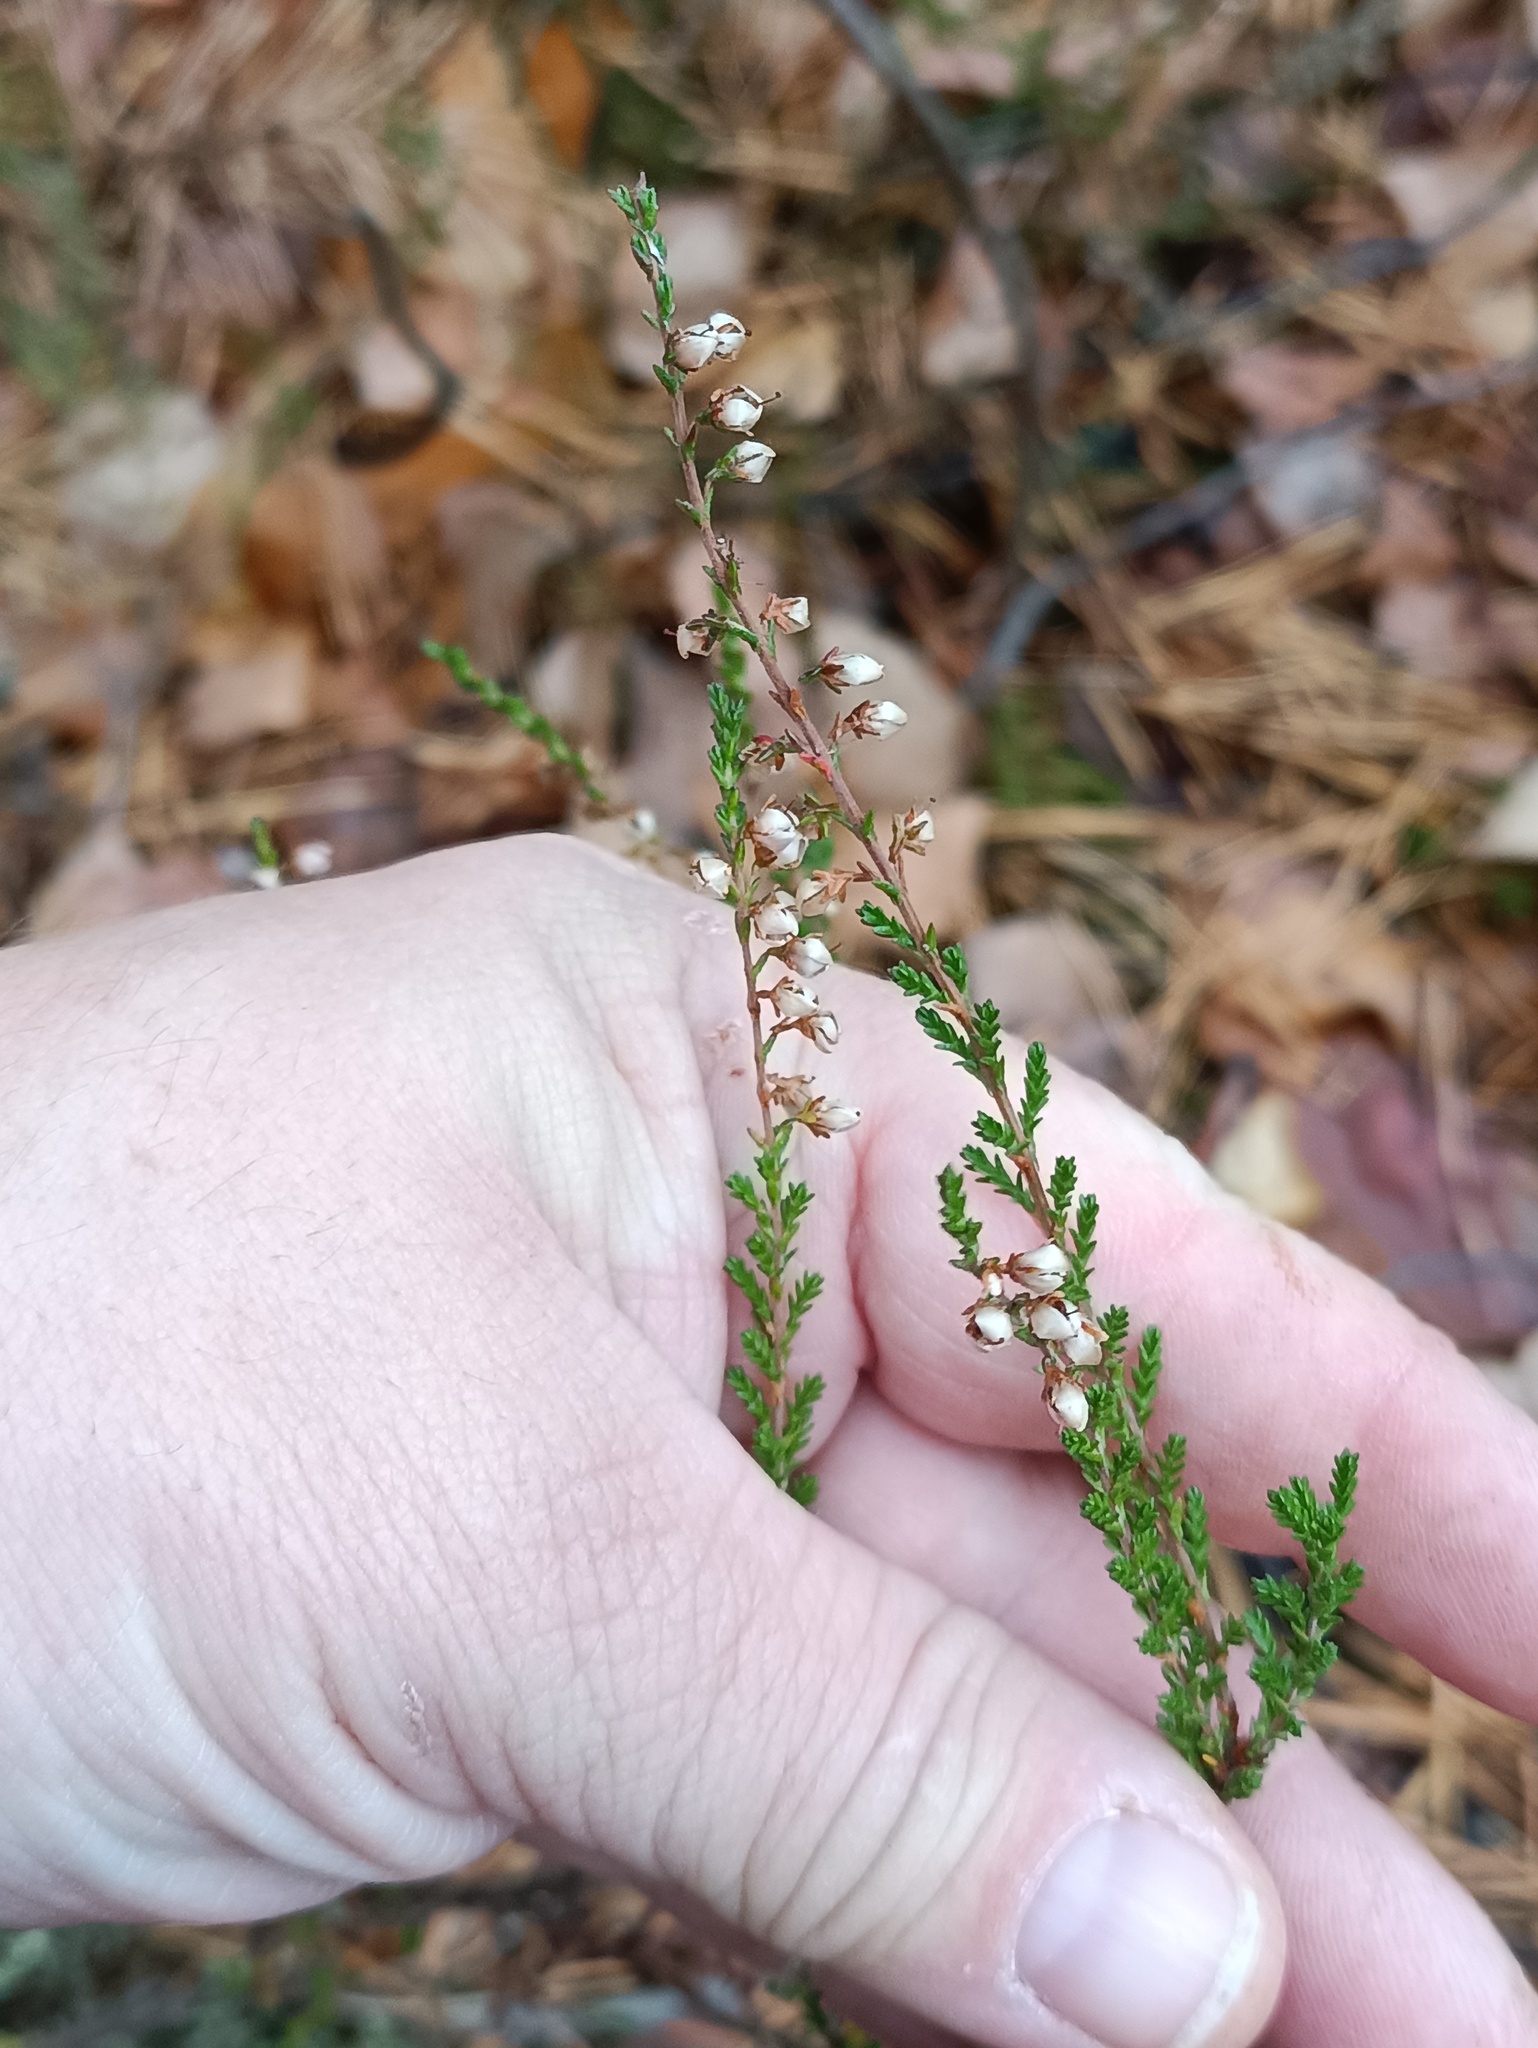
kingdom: Plantae
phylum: Tracheophyta
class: Magnoliopsida
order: Ericales
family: Ericaceae
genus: Calluna
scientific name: Calluna vulgaris
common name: Heather
